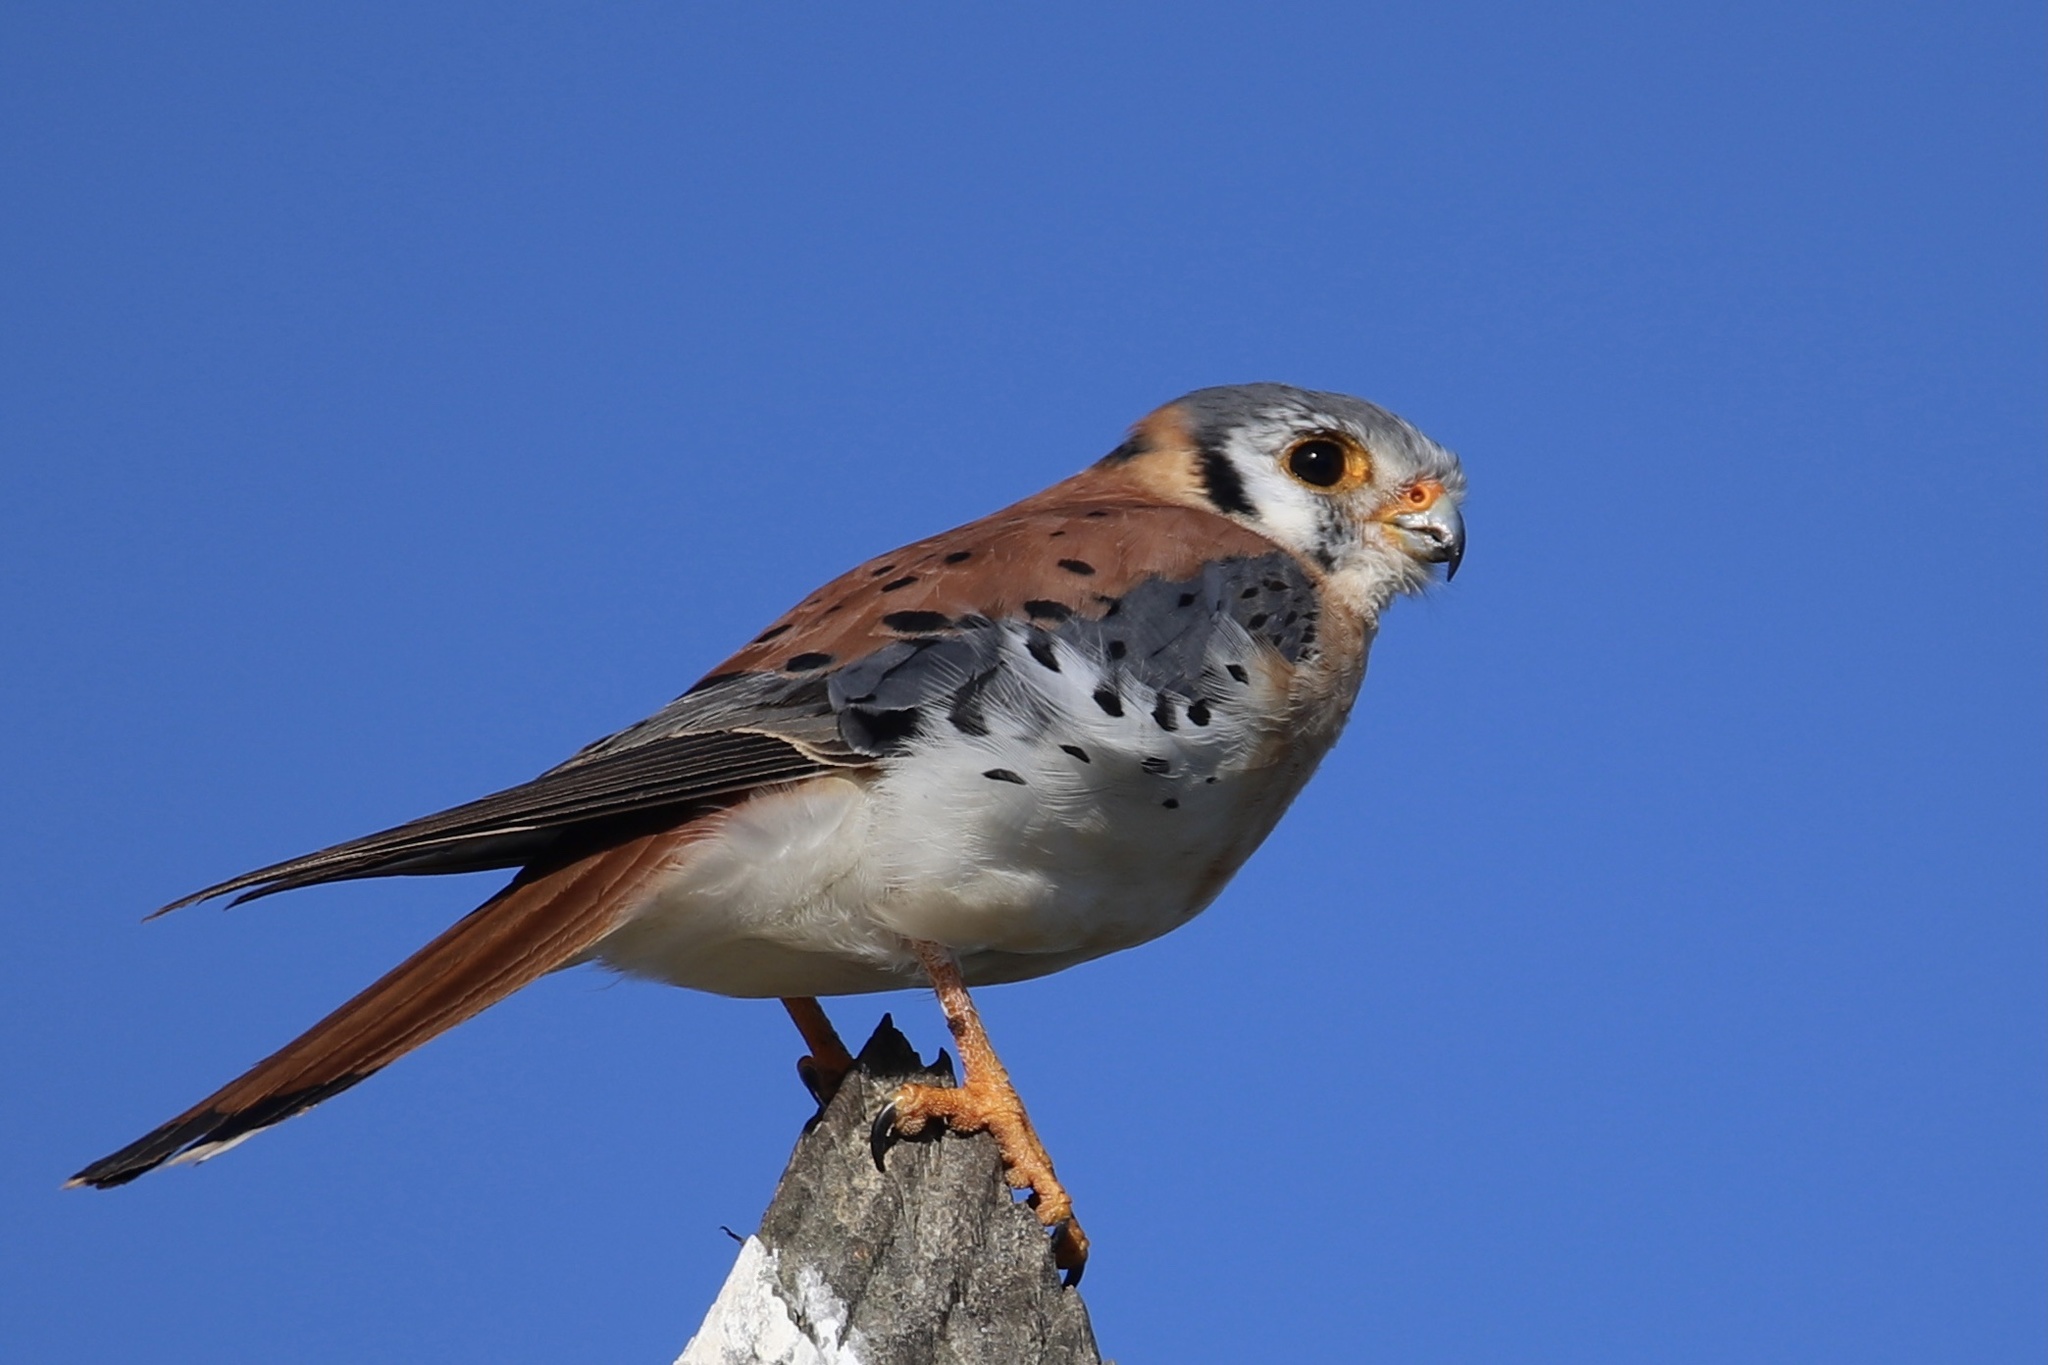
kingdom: Animalia
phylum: Chordata
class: Aves
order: Falconiformes
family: Falconidae
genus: Falco
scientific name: Falco sparverius
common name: American kestrel
